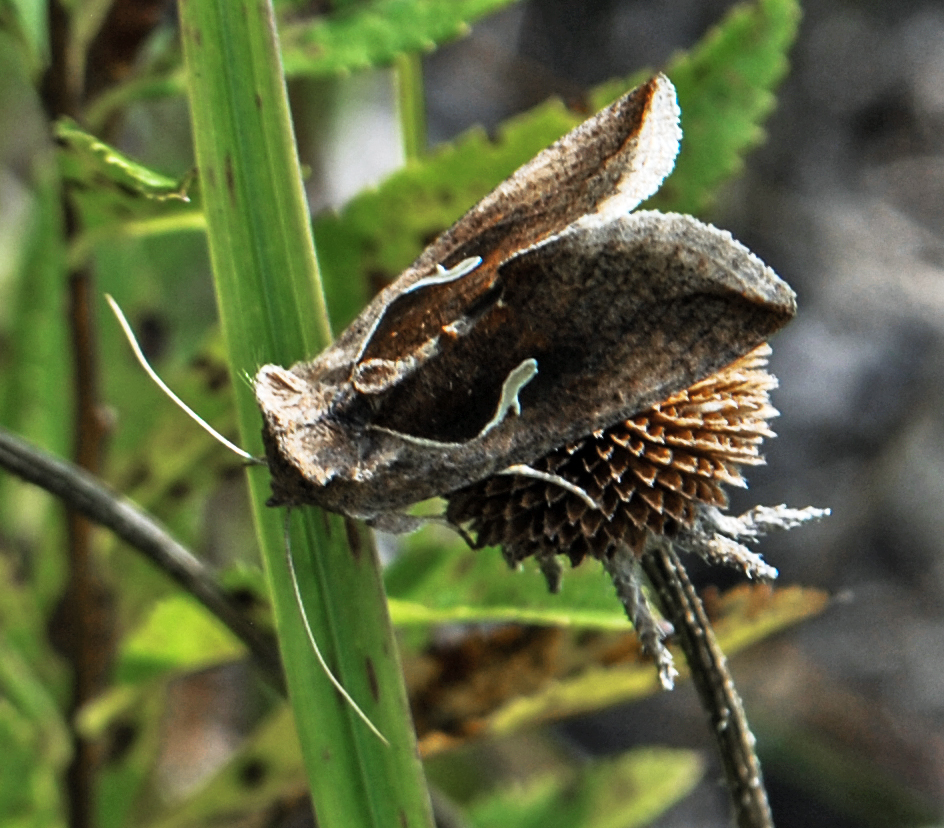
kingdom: Animalia
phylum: Arthropoda
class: Insecta
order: Lepidoptera
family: Noctuidae
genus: Anagrapha
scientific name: Anagrapha falcifera
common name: Celery looper
